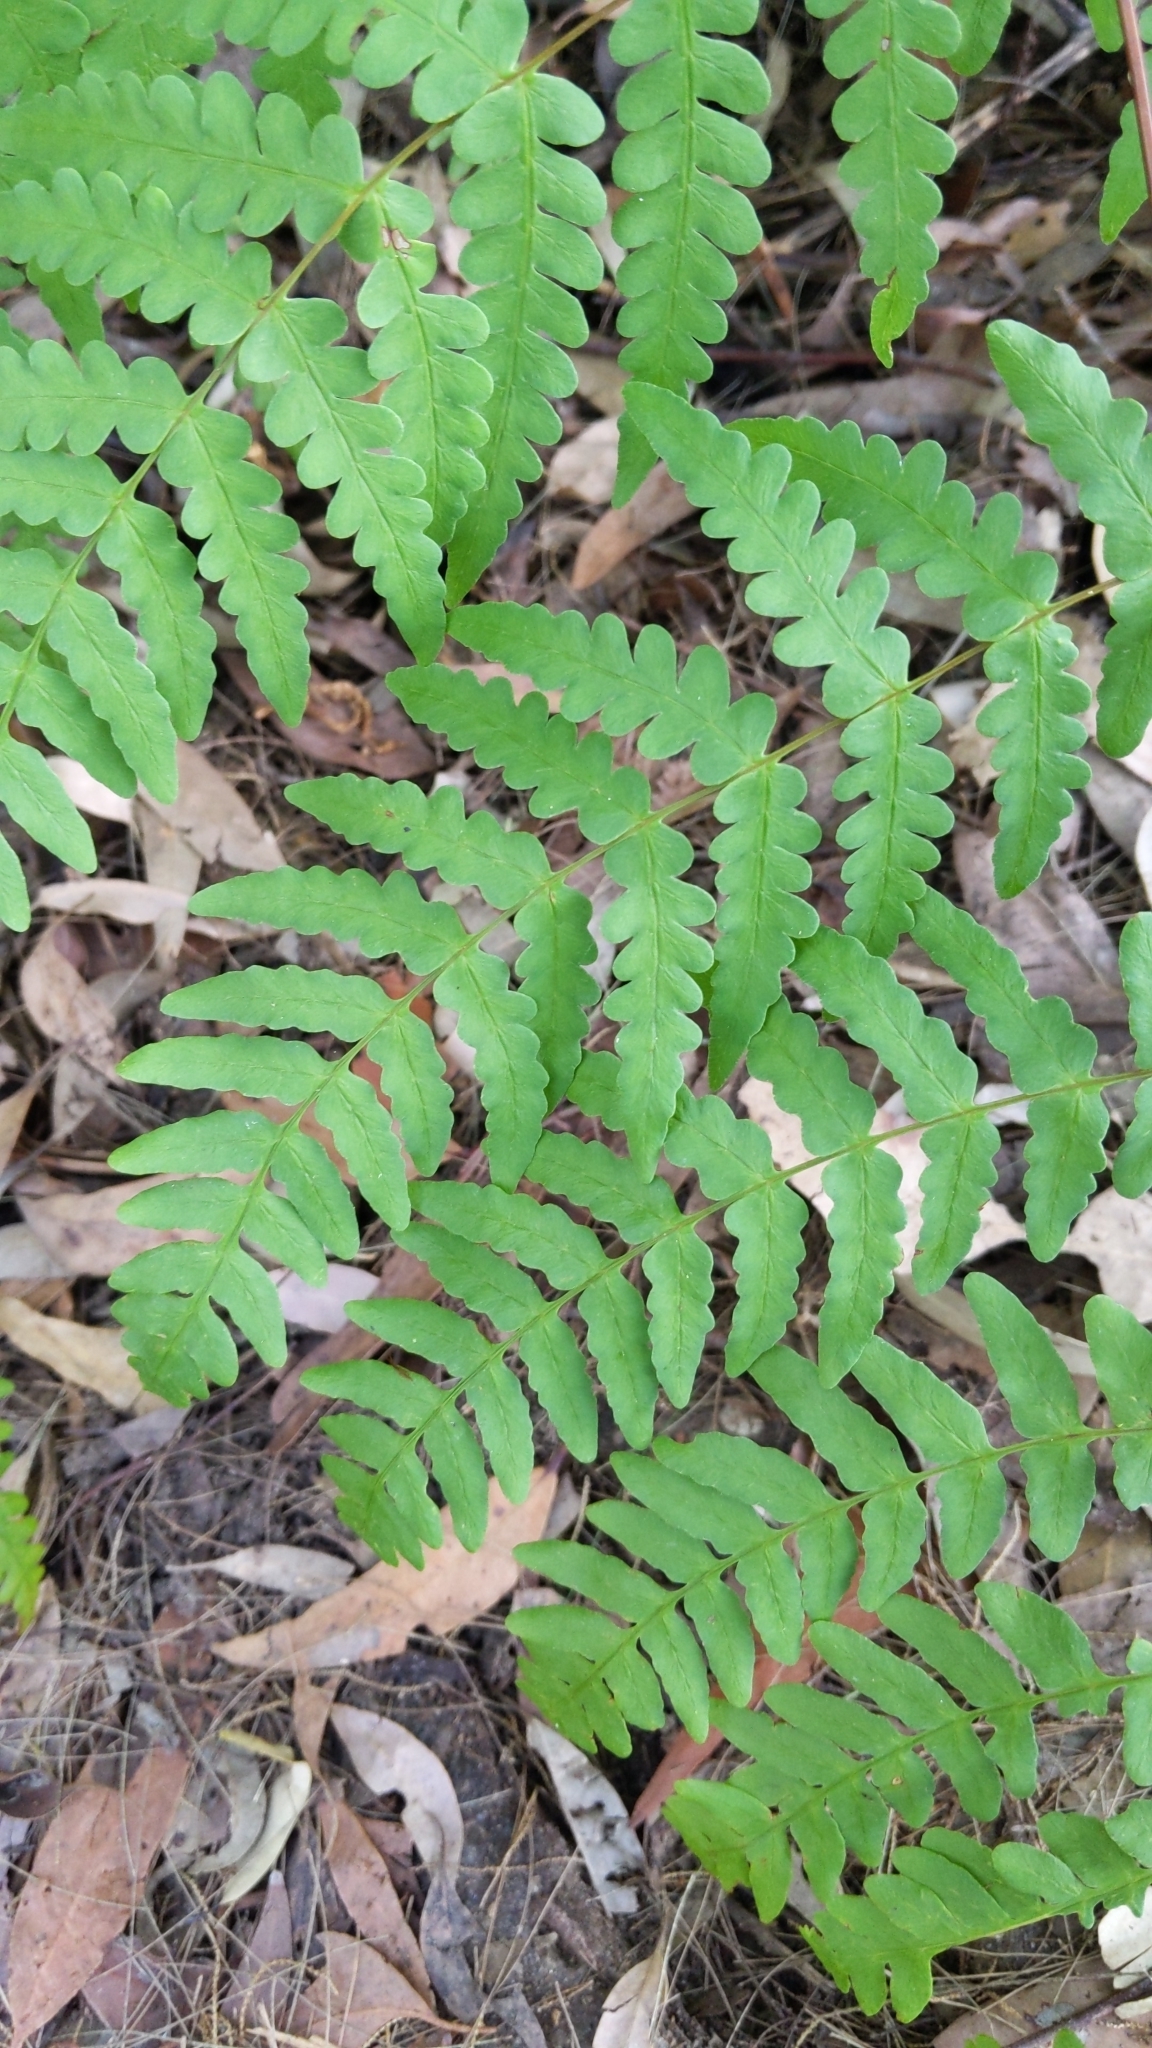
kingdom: Plantae
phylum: Tracheophyta
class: Polypodiopsida
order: Polypodiales
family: Dennstaedtiaceae
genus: Histiopteris
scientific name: Histiopteris incisa
